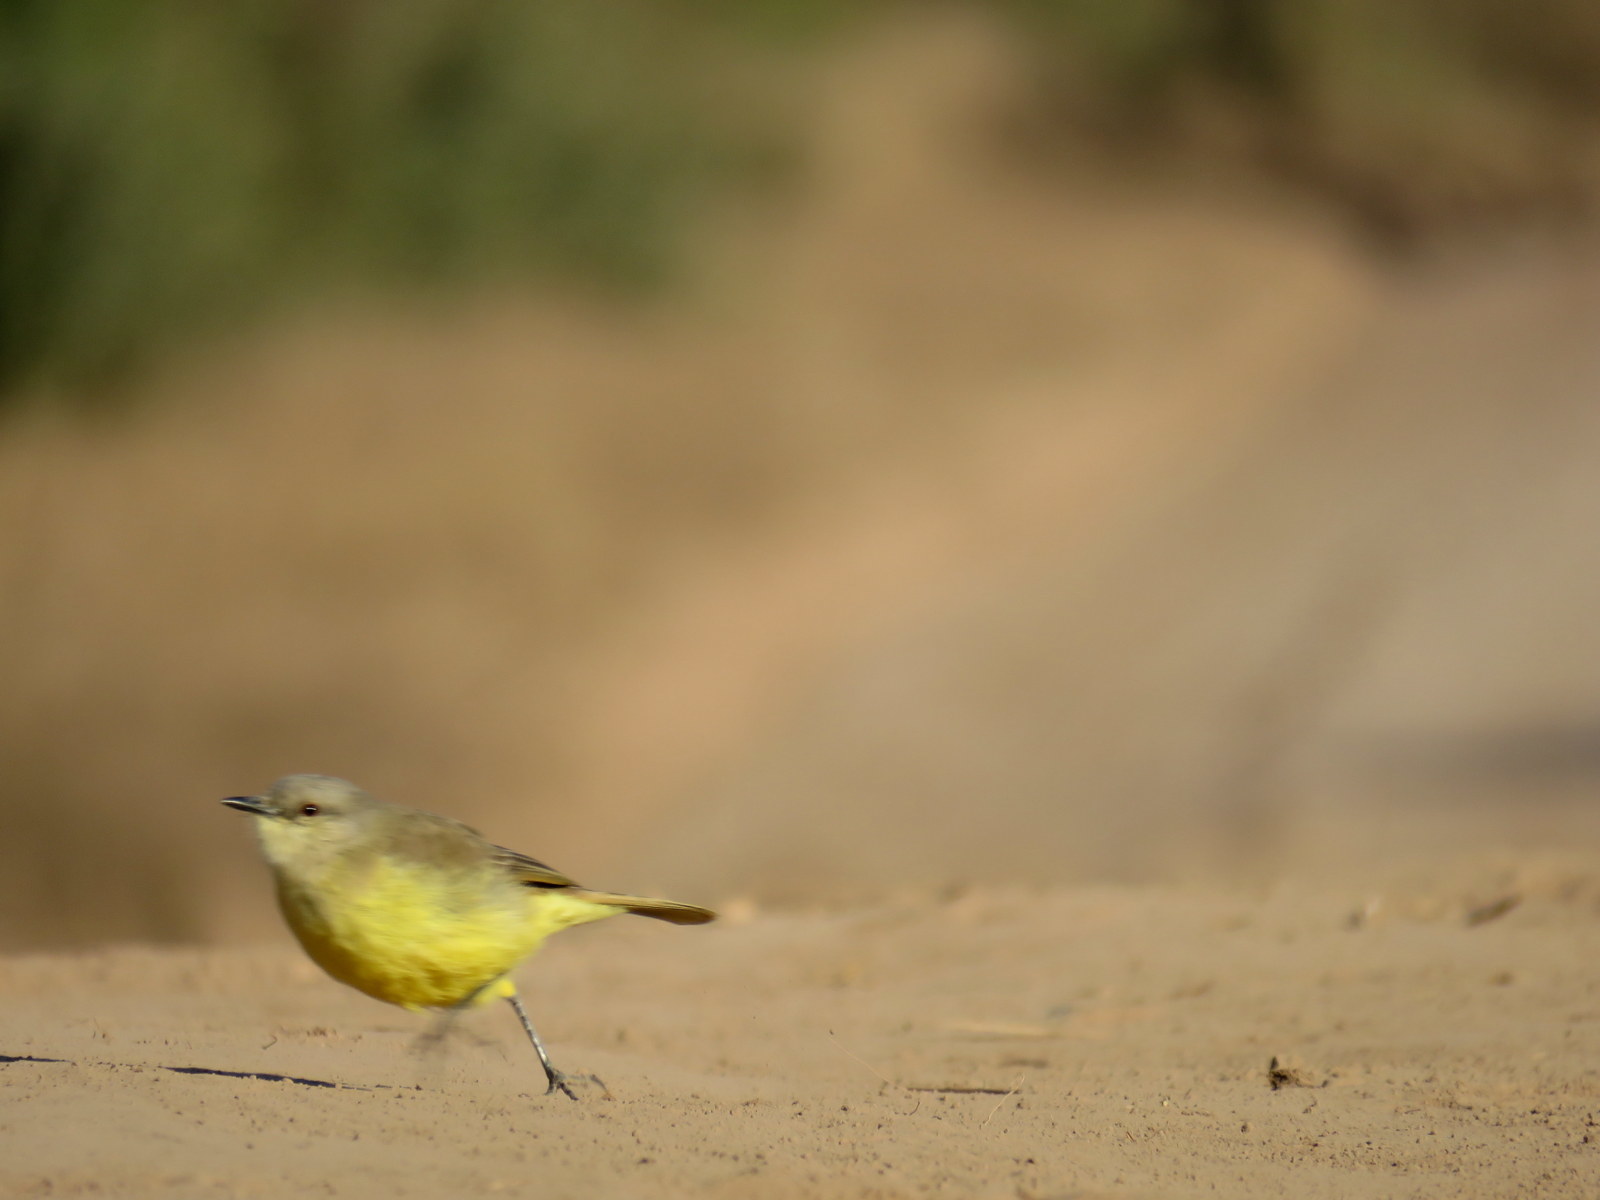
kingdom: Animalia
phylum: Chordata
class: Aves
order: Passeriformes
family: Tyrannidae
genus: Machetornis
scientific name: Machetornis rixosa
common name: Cattle tyrant
